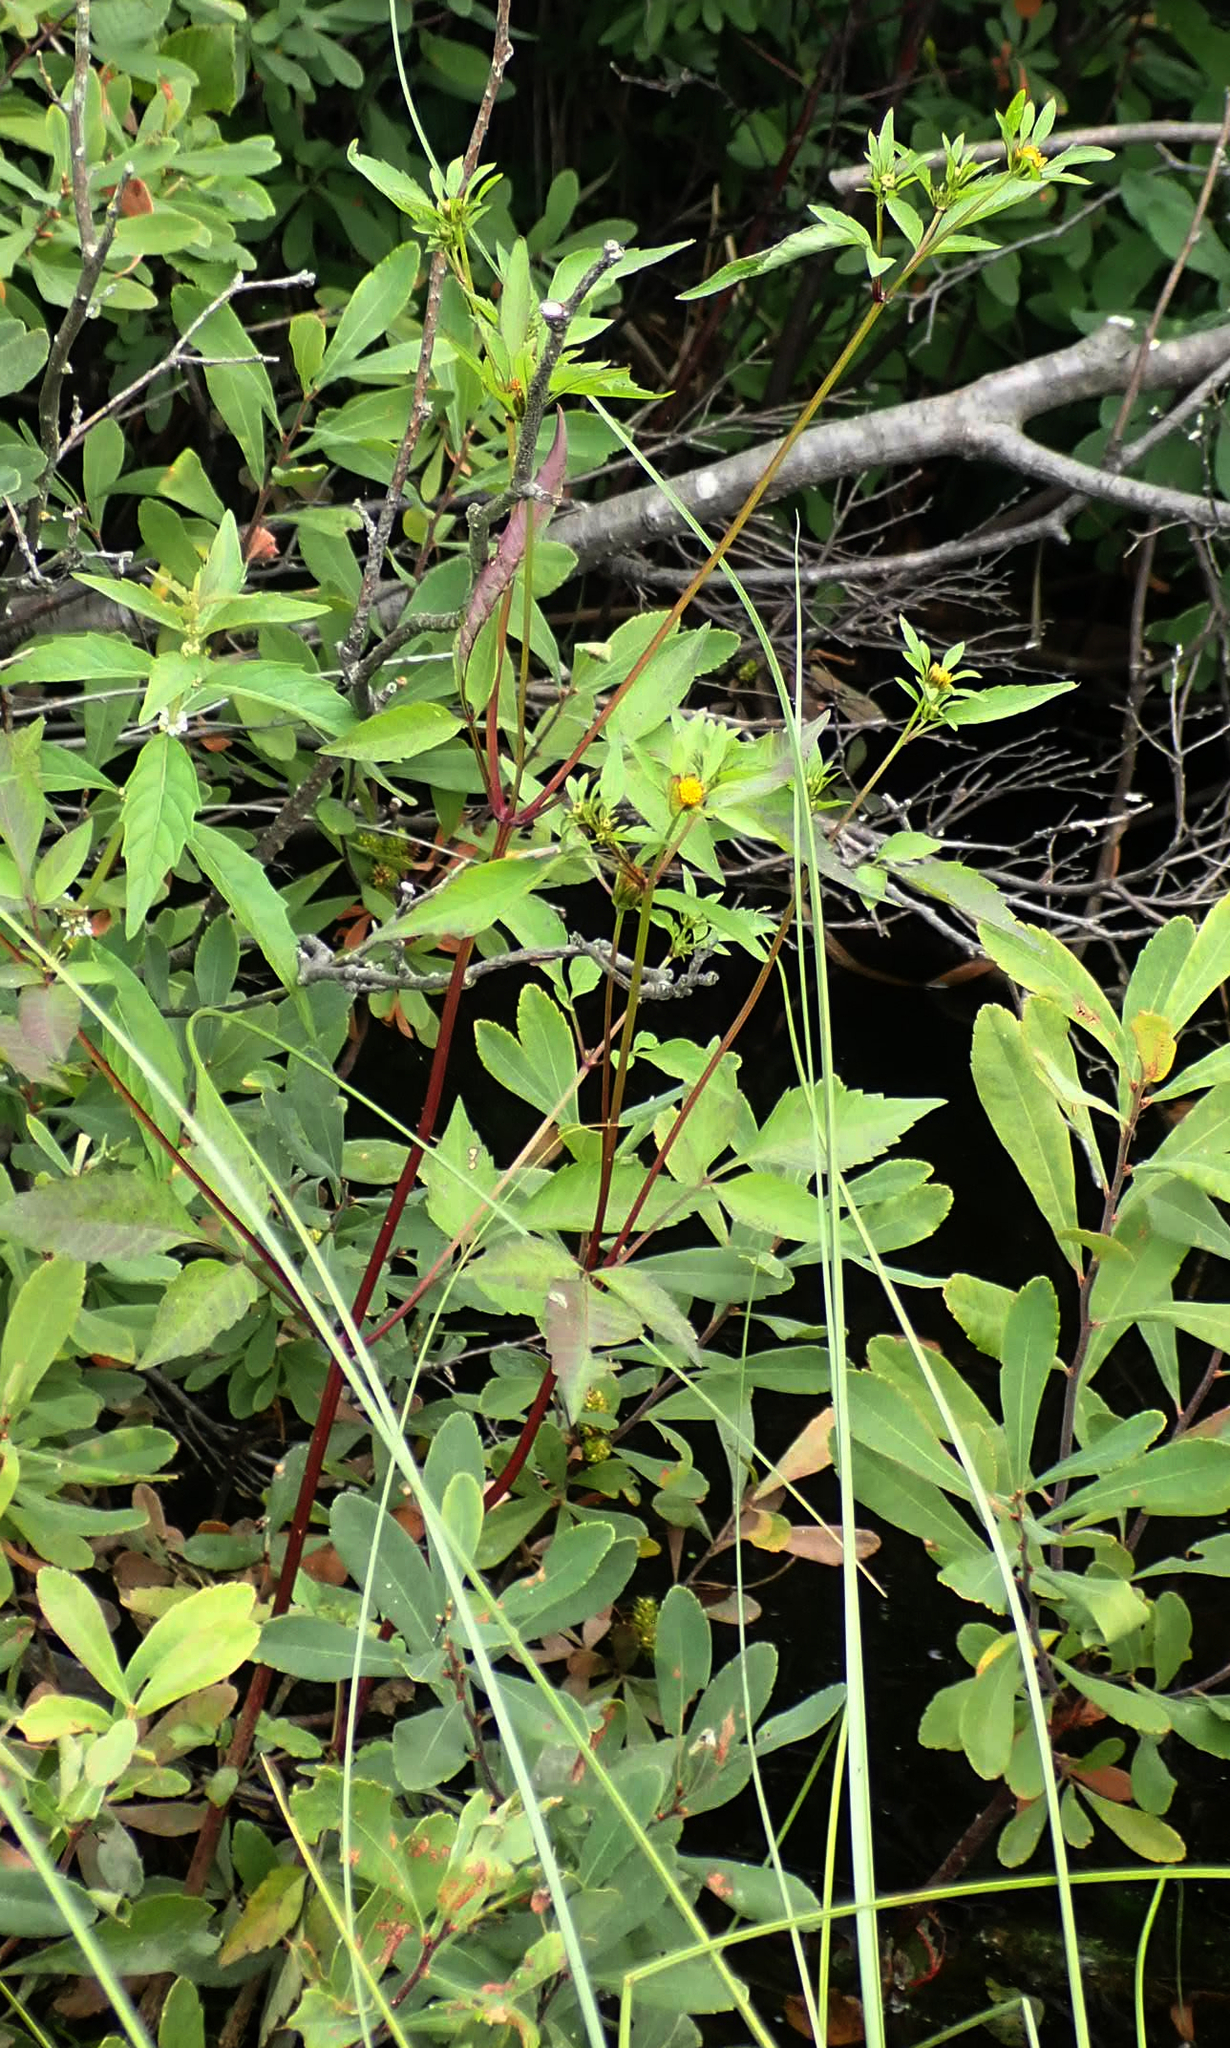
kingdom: Plantae
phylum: Tracheophyta
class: Magnoliopsida
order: Asterales
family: Asteraceae
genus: Bidens
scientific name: Bidens frondosa
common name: Beggarticks
